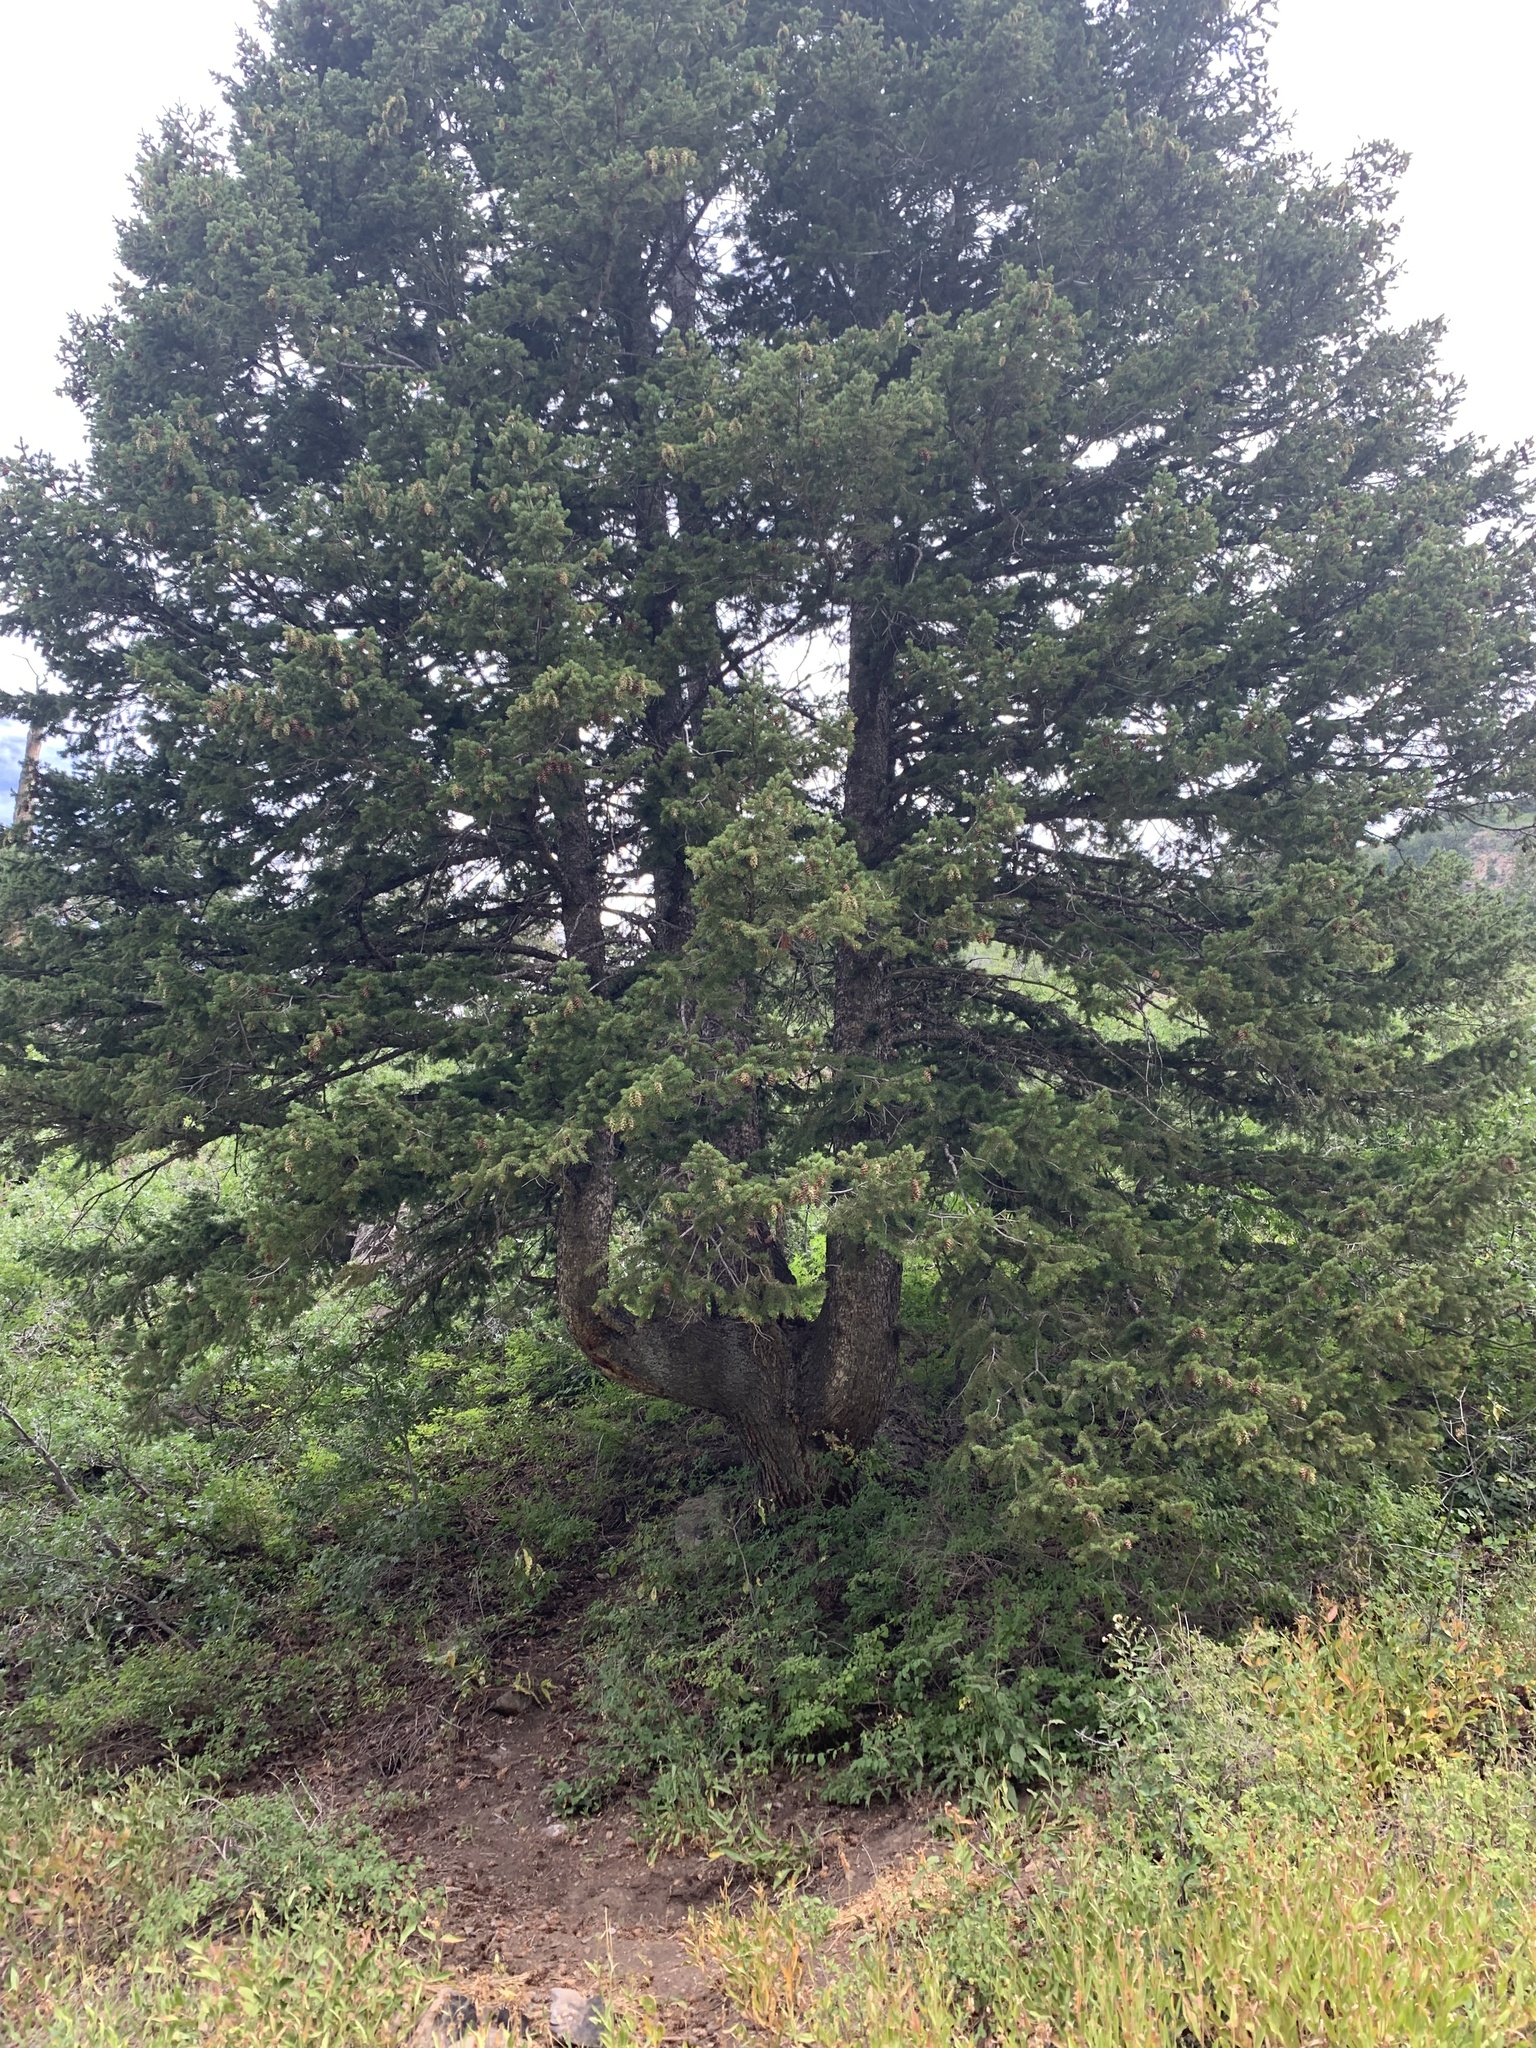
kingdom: Plantae
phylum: Tracheophyta
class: Pinopsida
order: Pinales
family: Pinaceae
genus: Pseudotsuga
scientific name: Pseudotsuga menziesii
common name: Douglas fir
